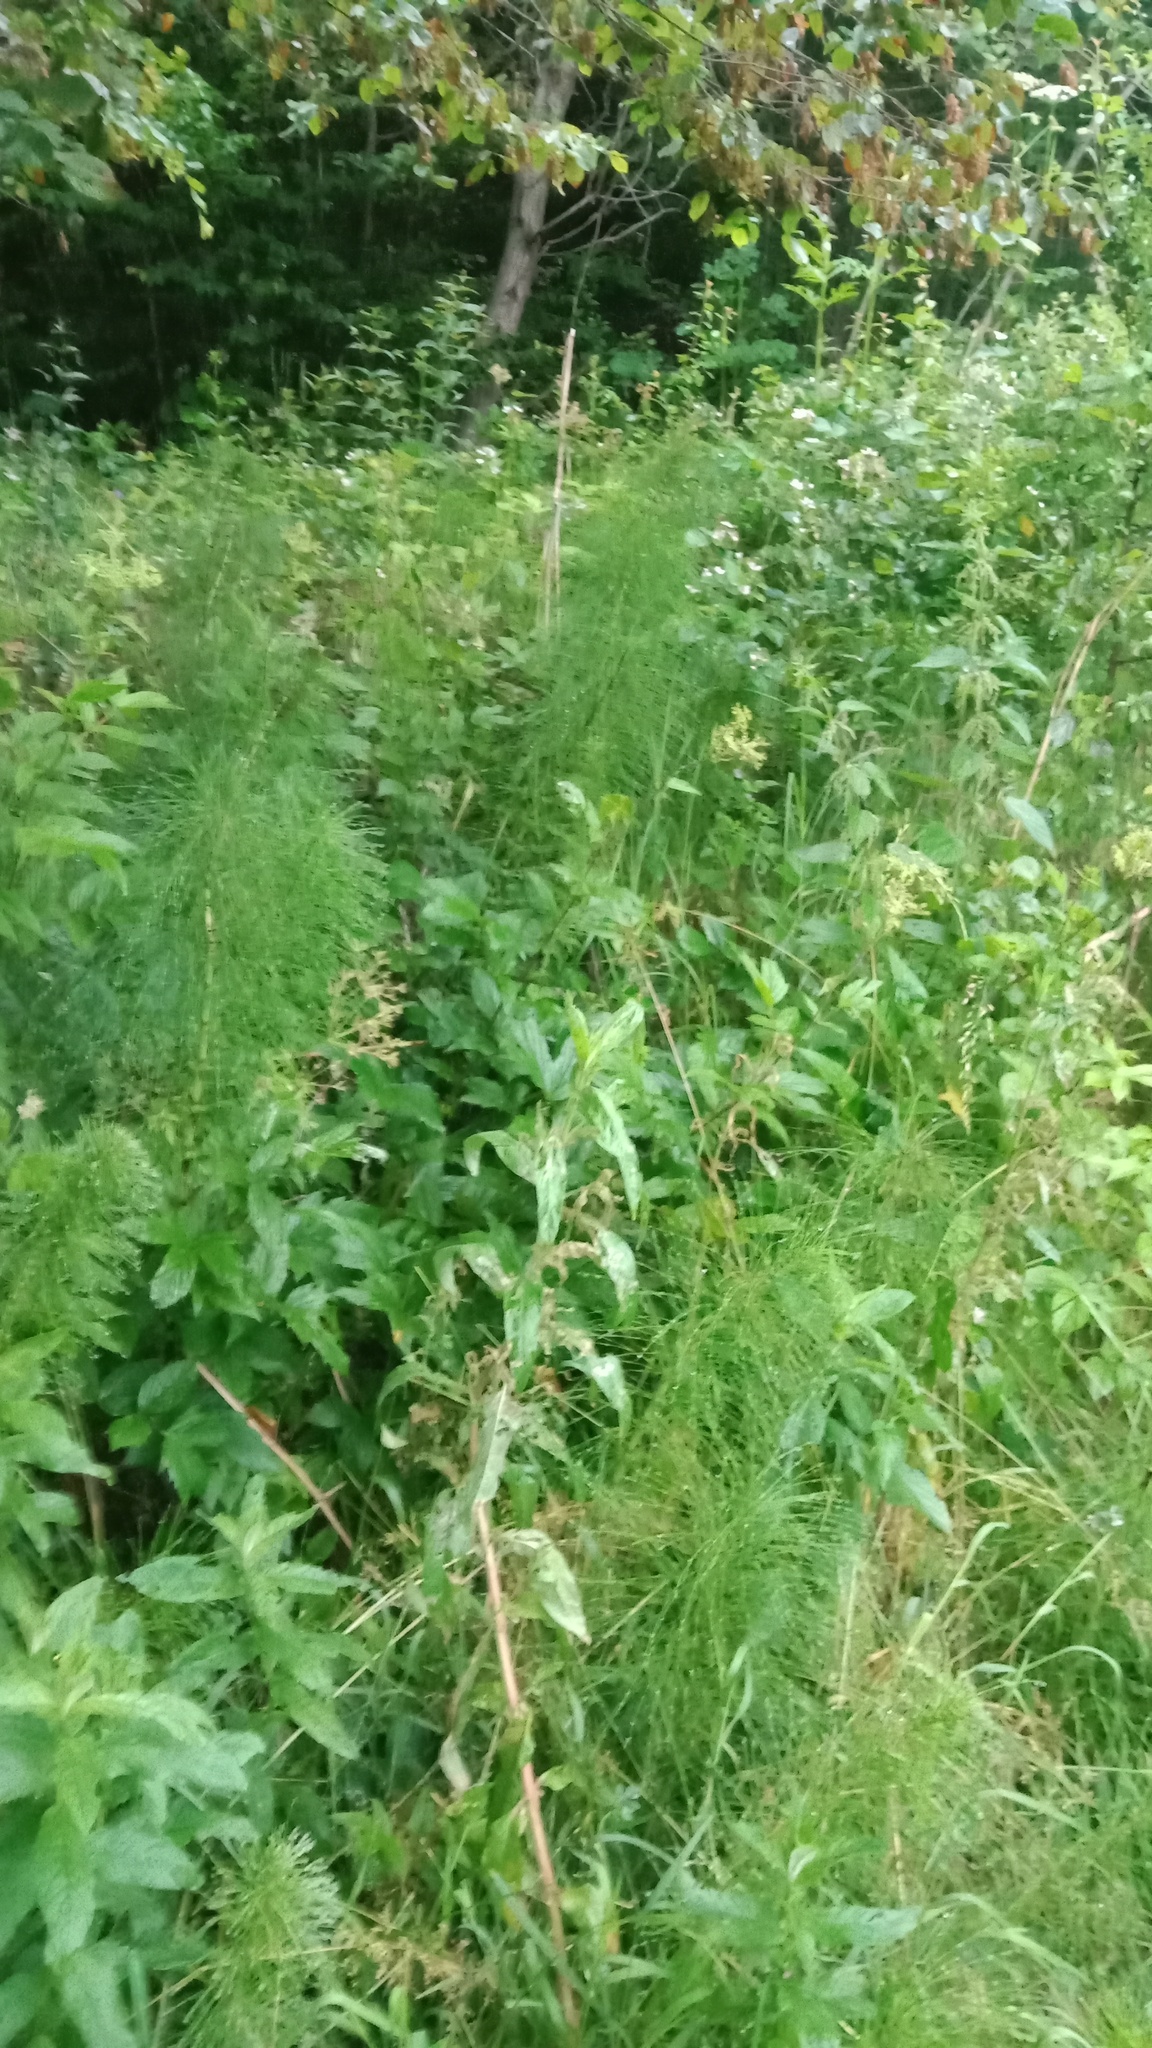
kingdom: Plantae
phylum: Tracheophyta
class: Polypodiopsida
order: Equisetales
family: Equisetaceae
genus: Equisetum
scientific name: Equisetum telmateia
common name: Great horsetail
